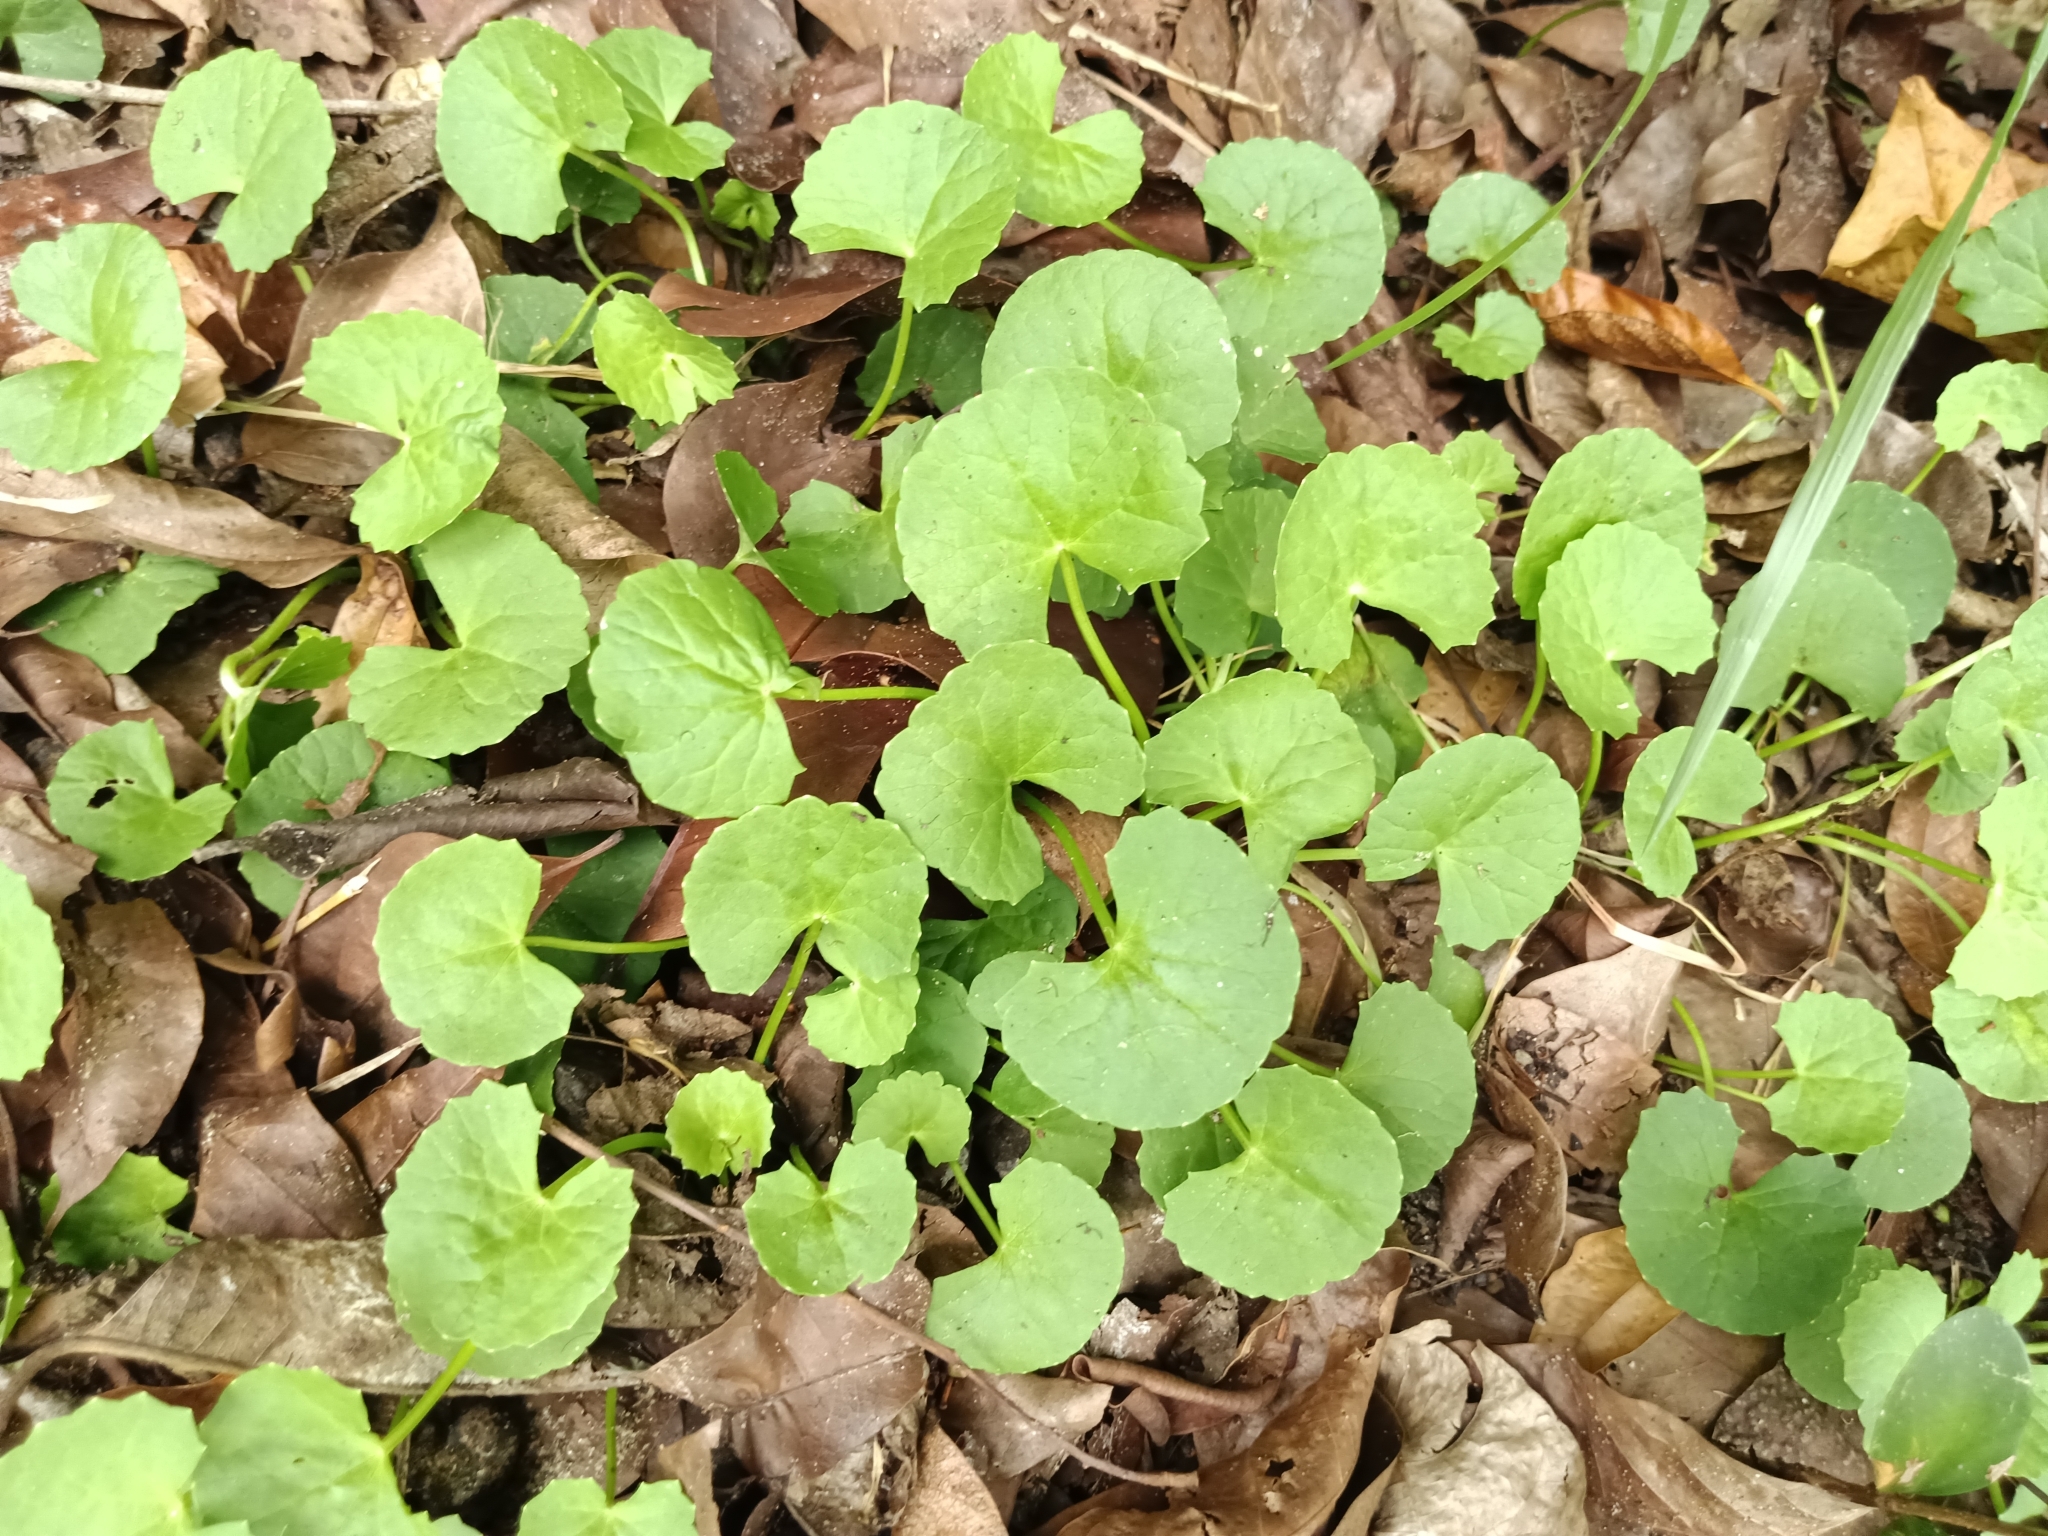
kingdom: Plantae
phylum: Tracheophyta
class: Magnoliopsida
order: Apiales
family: Apiaceae
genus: Centella
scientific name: Centella asiatica
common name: Spadeleaf
